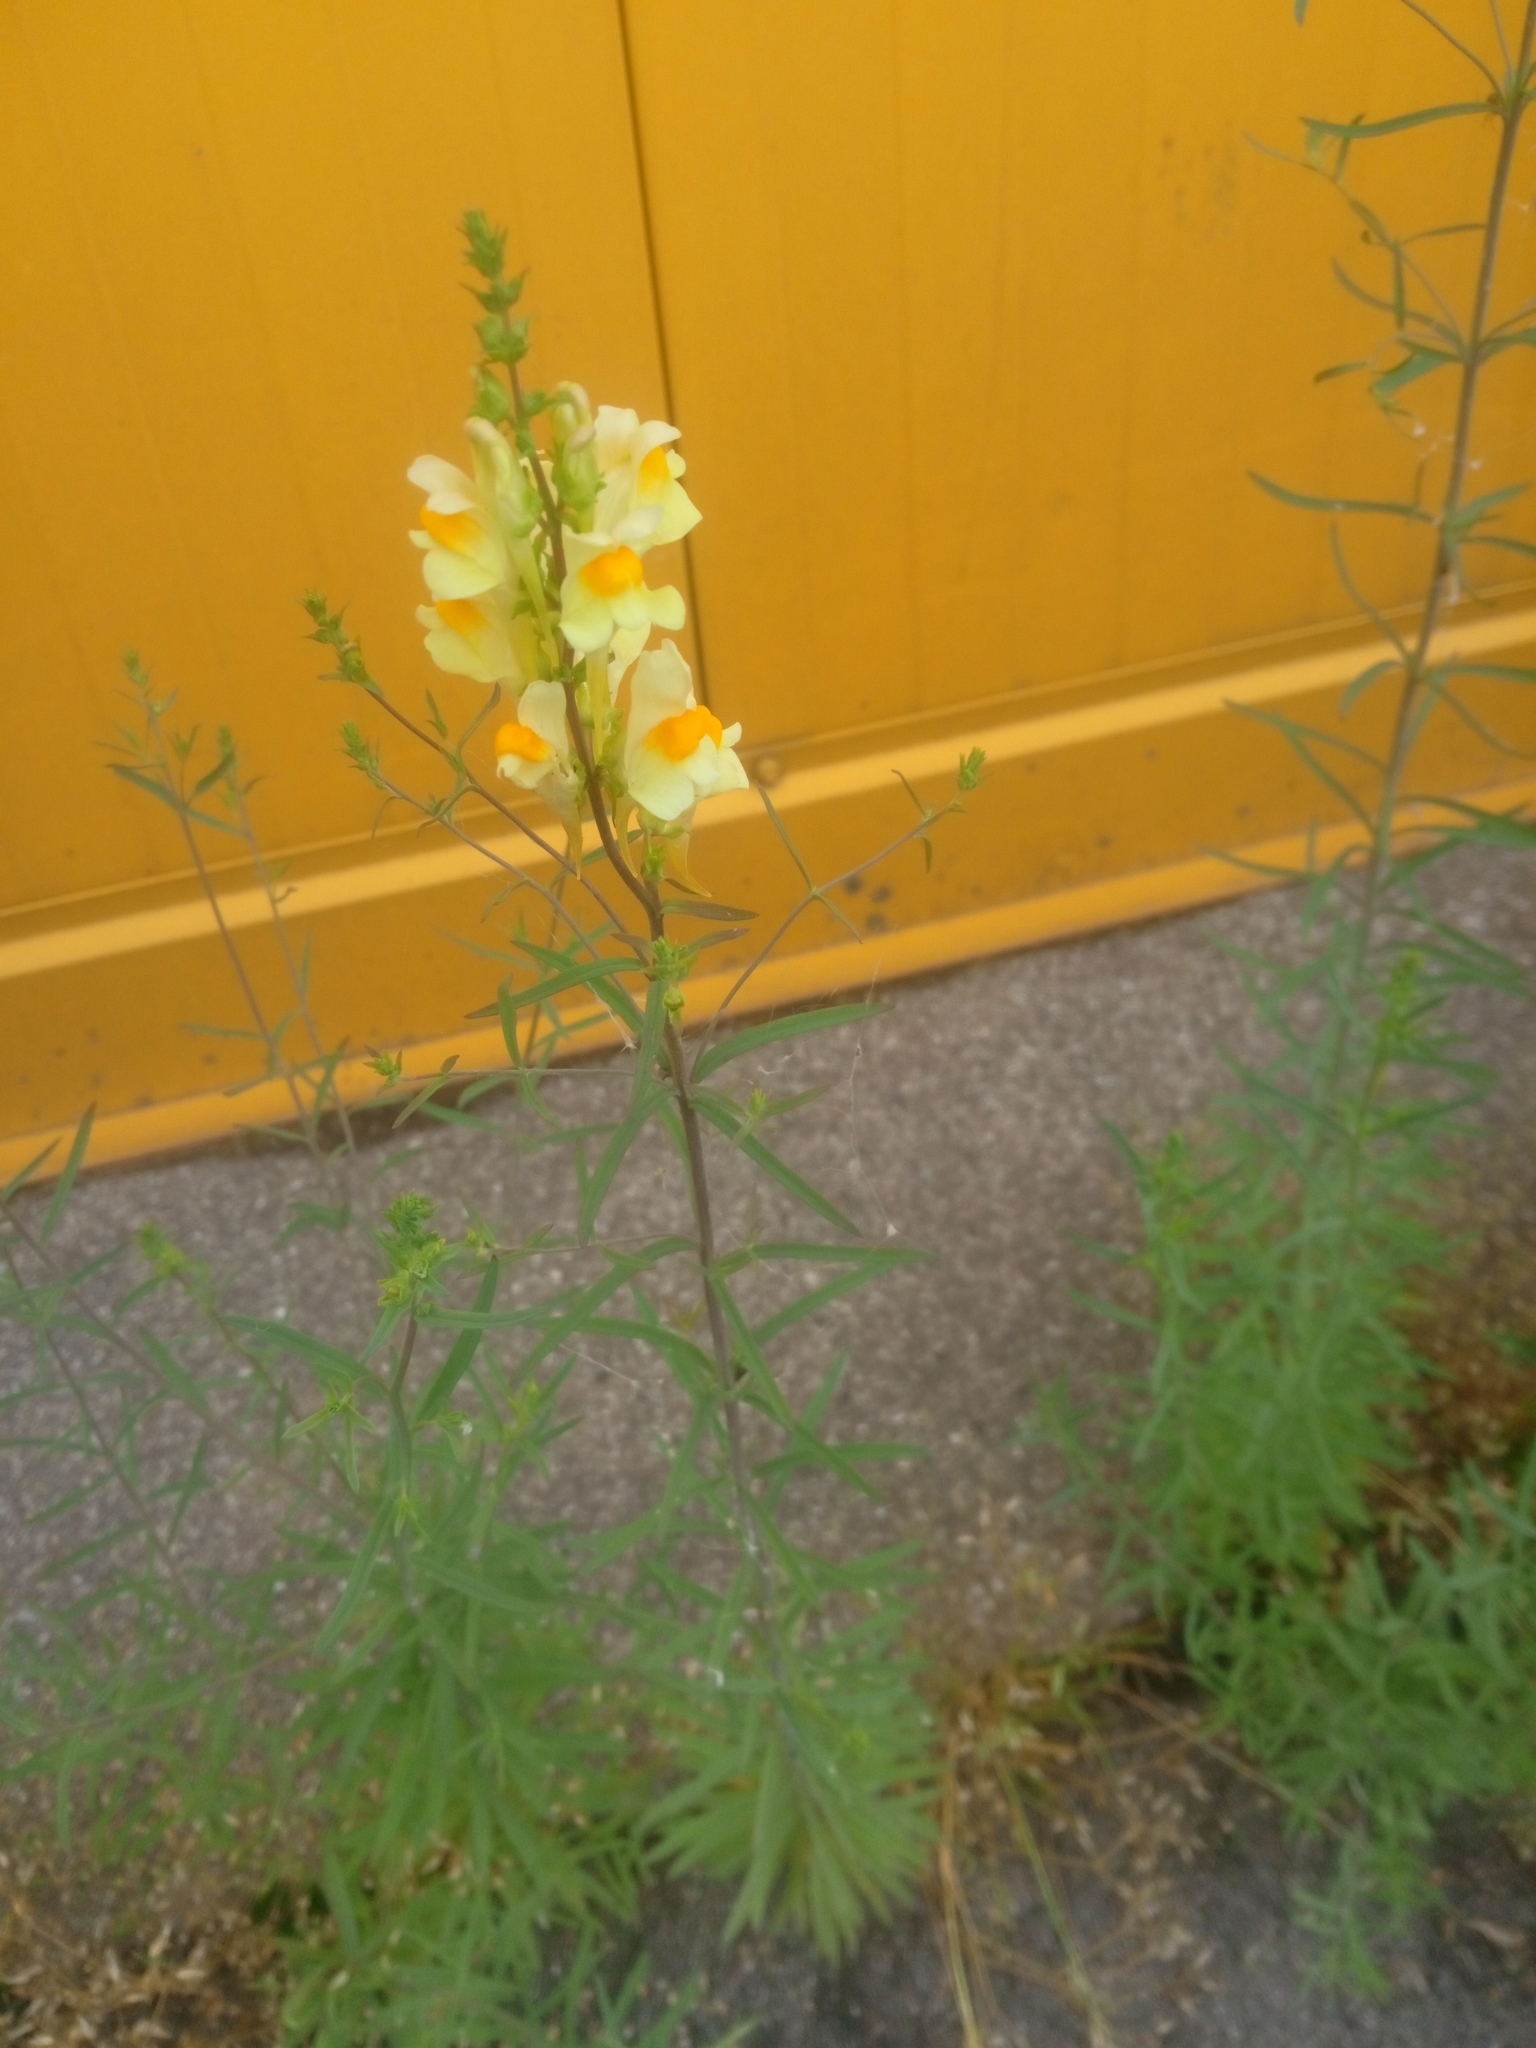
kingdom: Plantae
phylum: Tracheophyta
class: Magnoliopsida
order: Lamiales
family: Plantaginaceae
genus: Linaria
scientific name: Linaria vulgaris
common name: Butter and eggs
